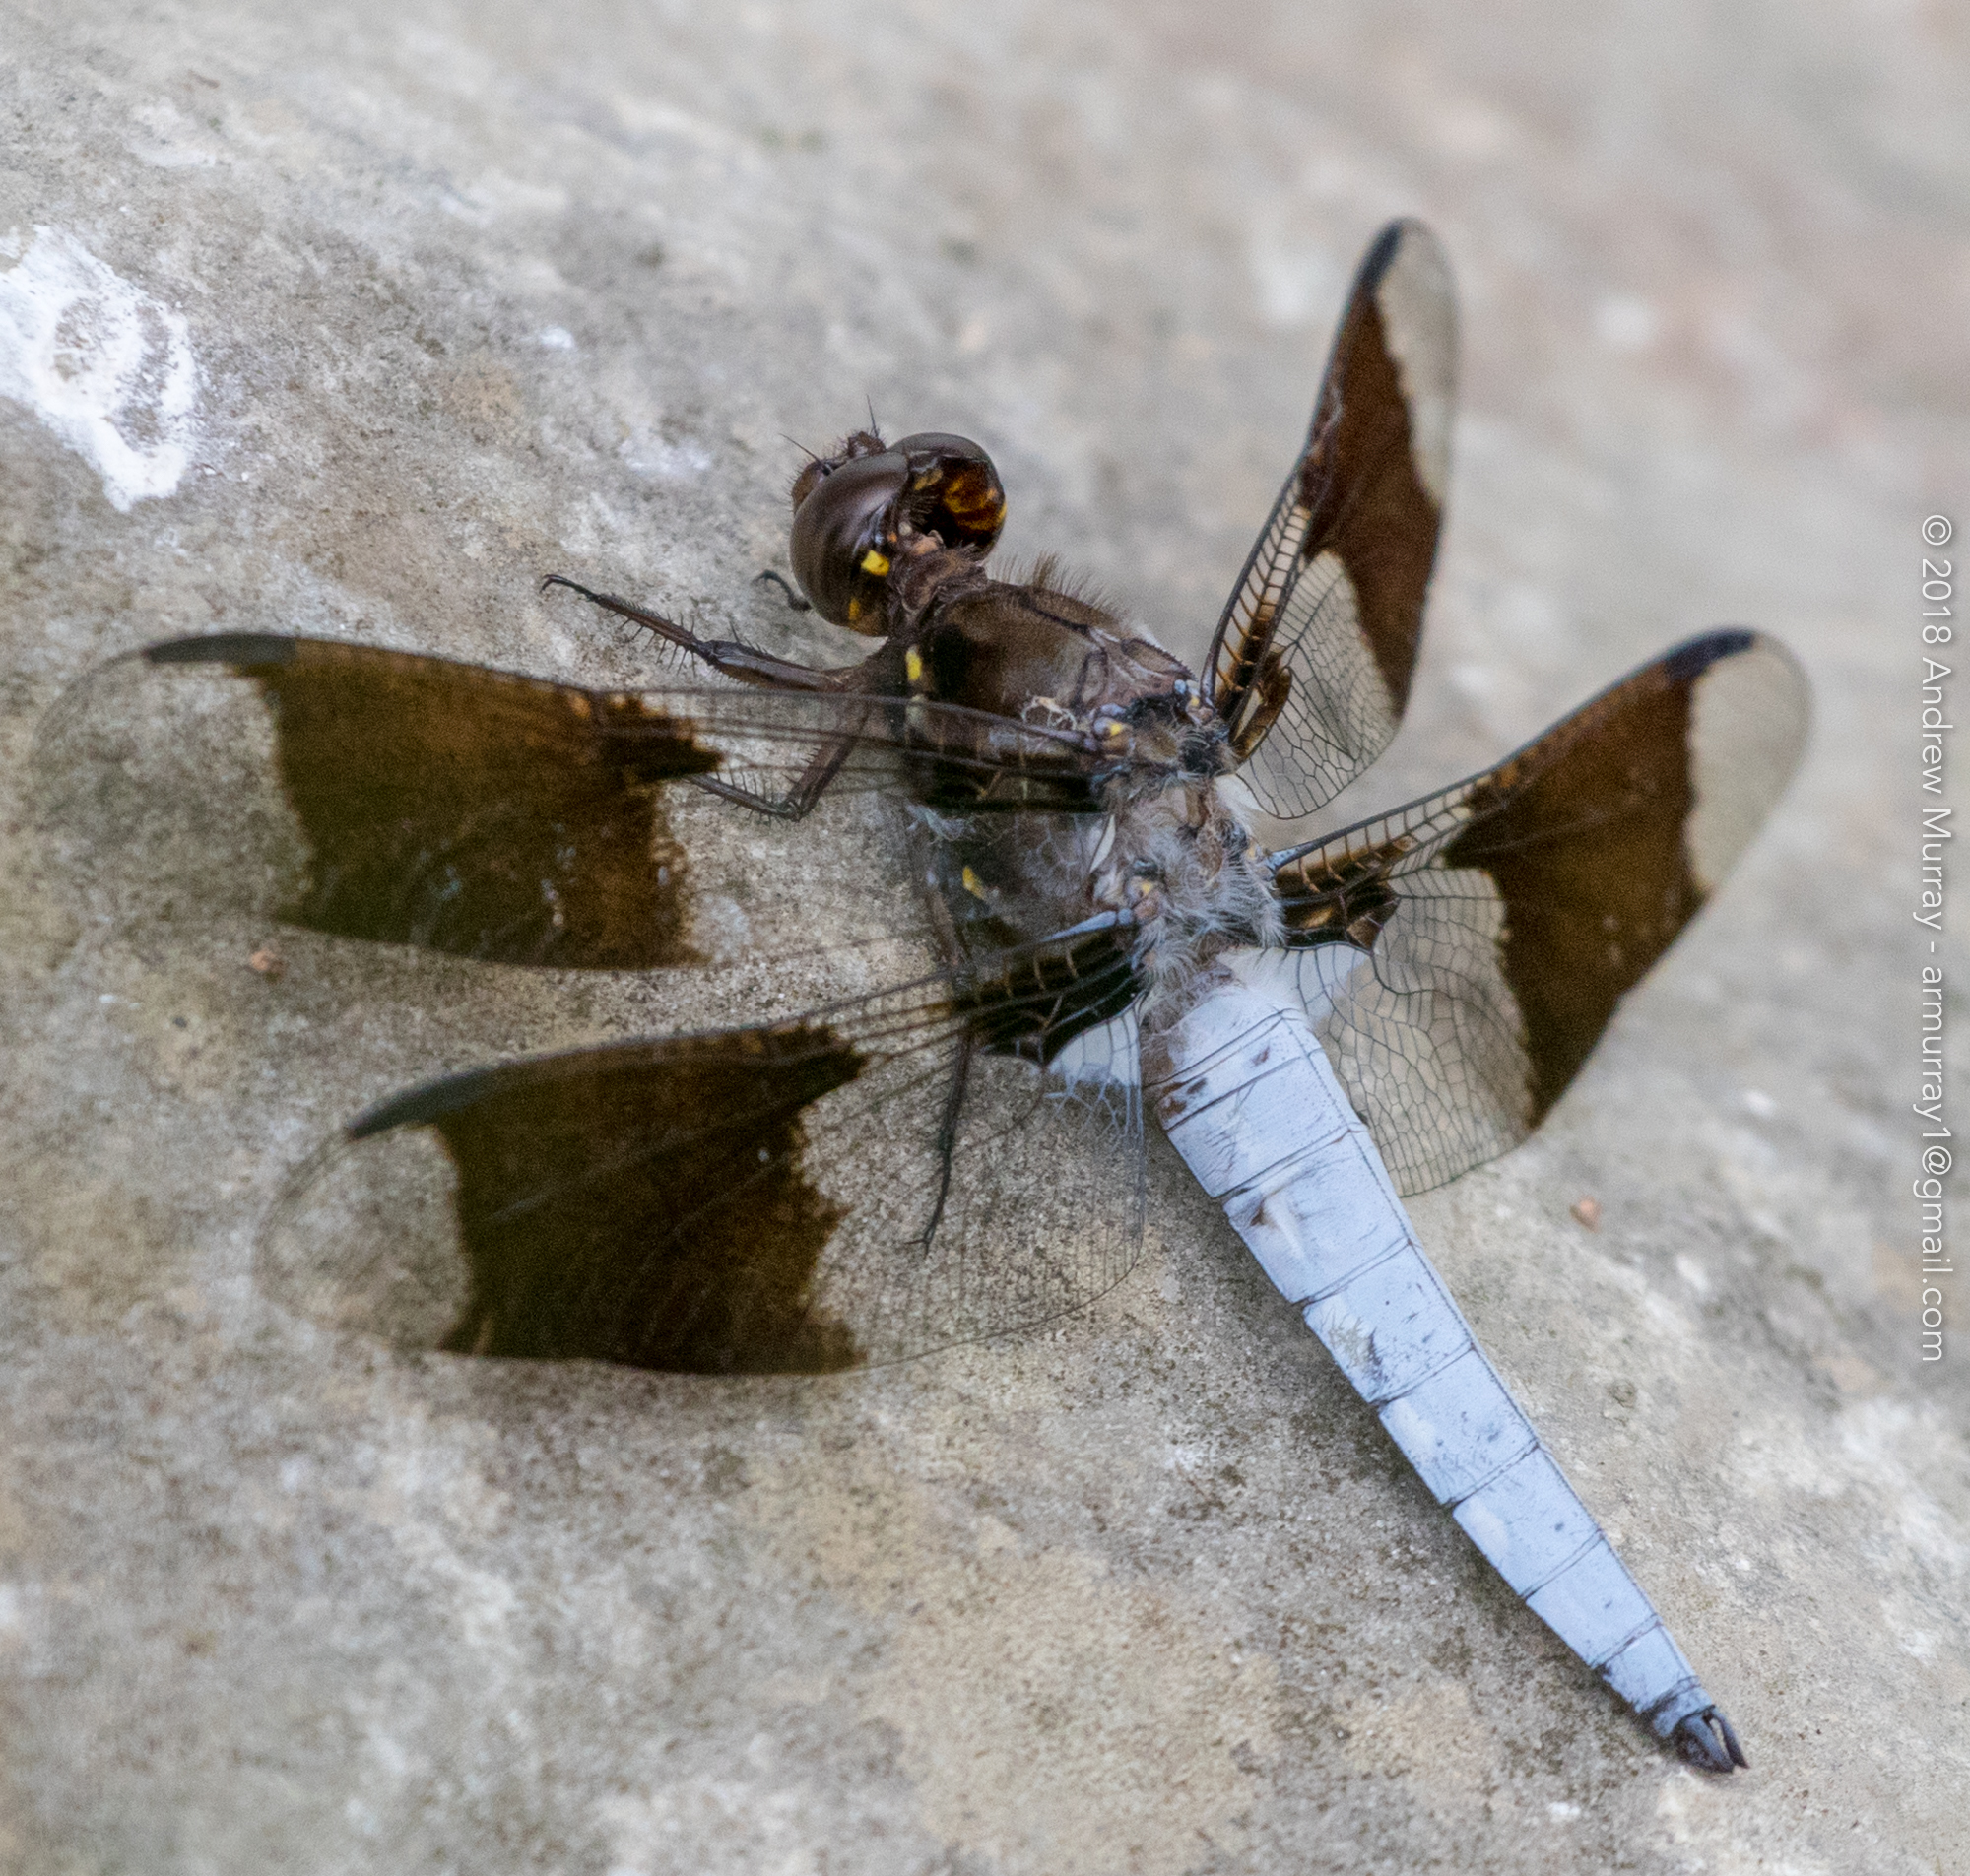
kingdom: Animalia
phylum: Arthropoda
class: Insecta
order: Odonata
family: Libellulidae
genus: Plathemis
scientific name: Plathemis lydia
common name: Common whitetail
